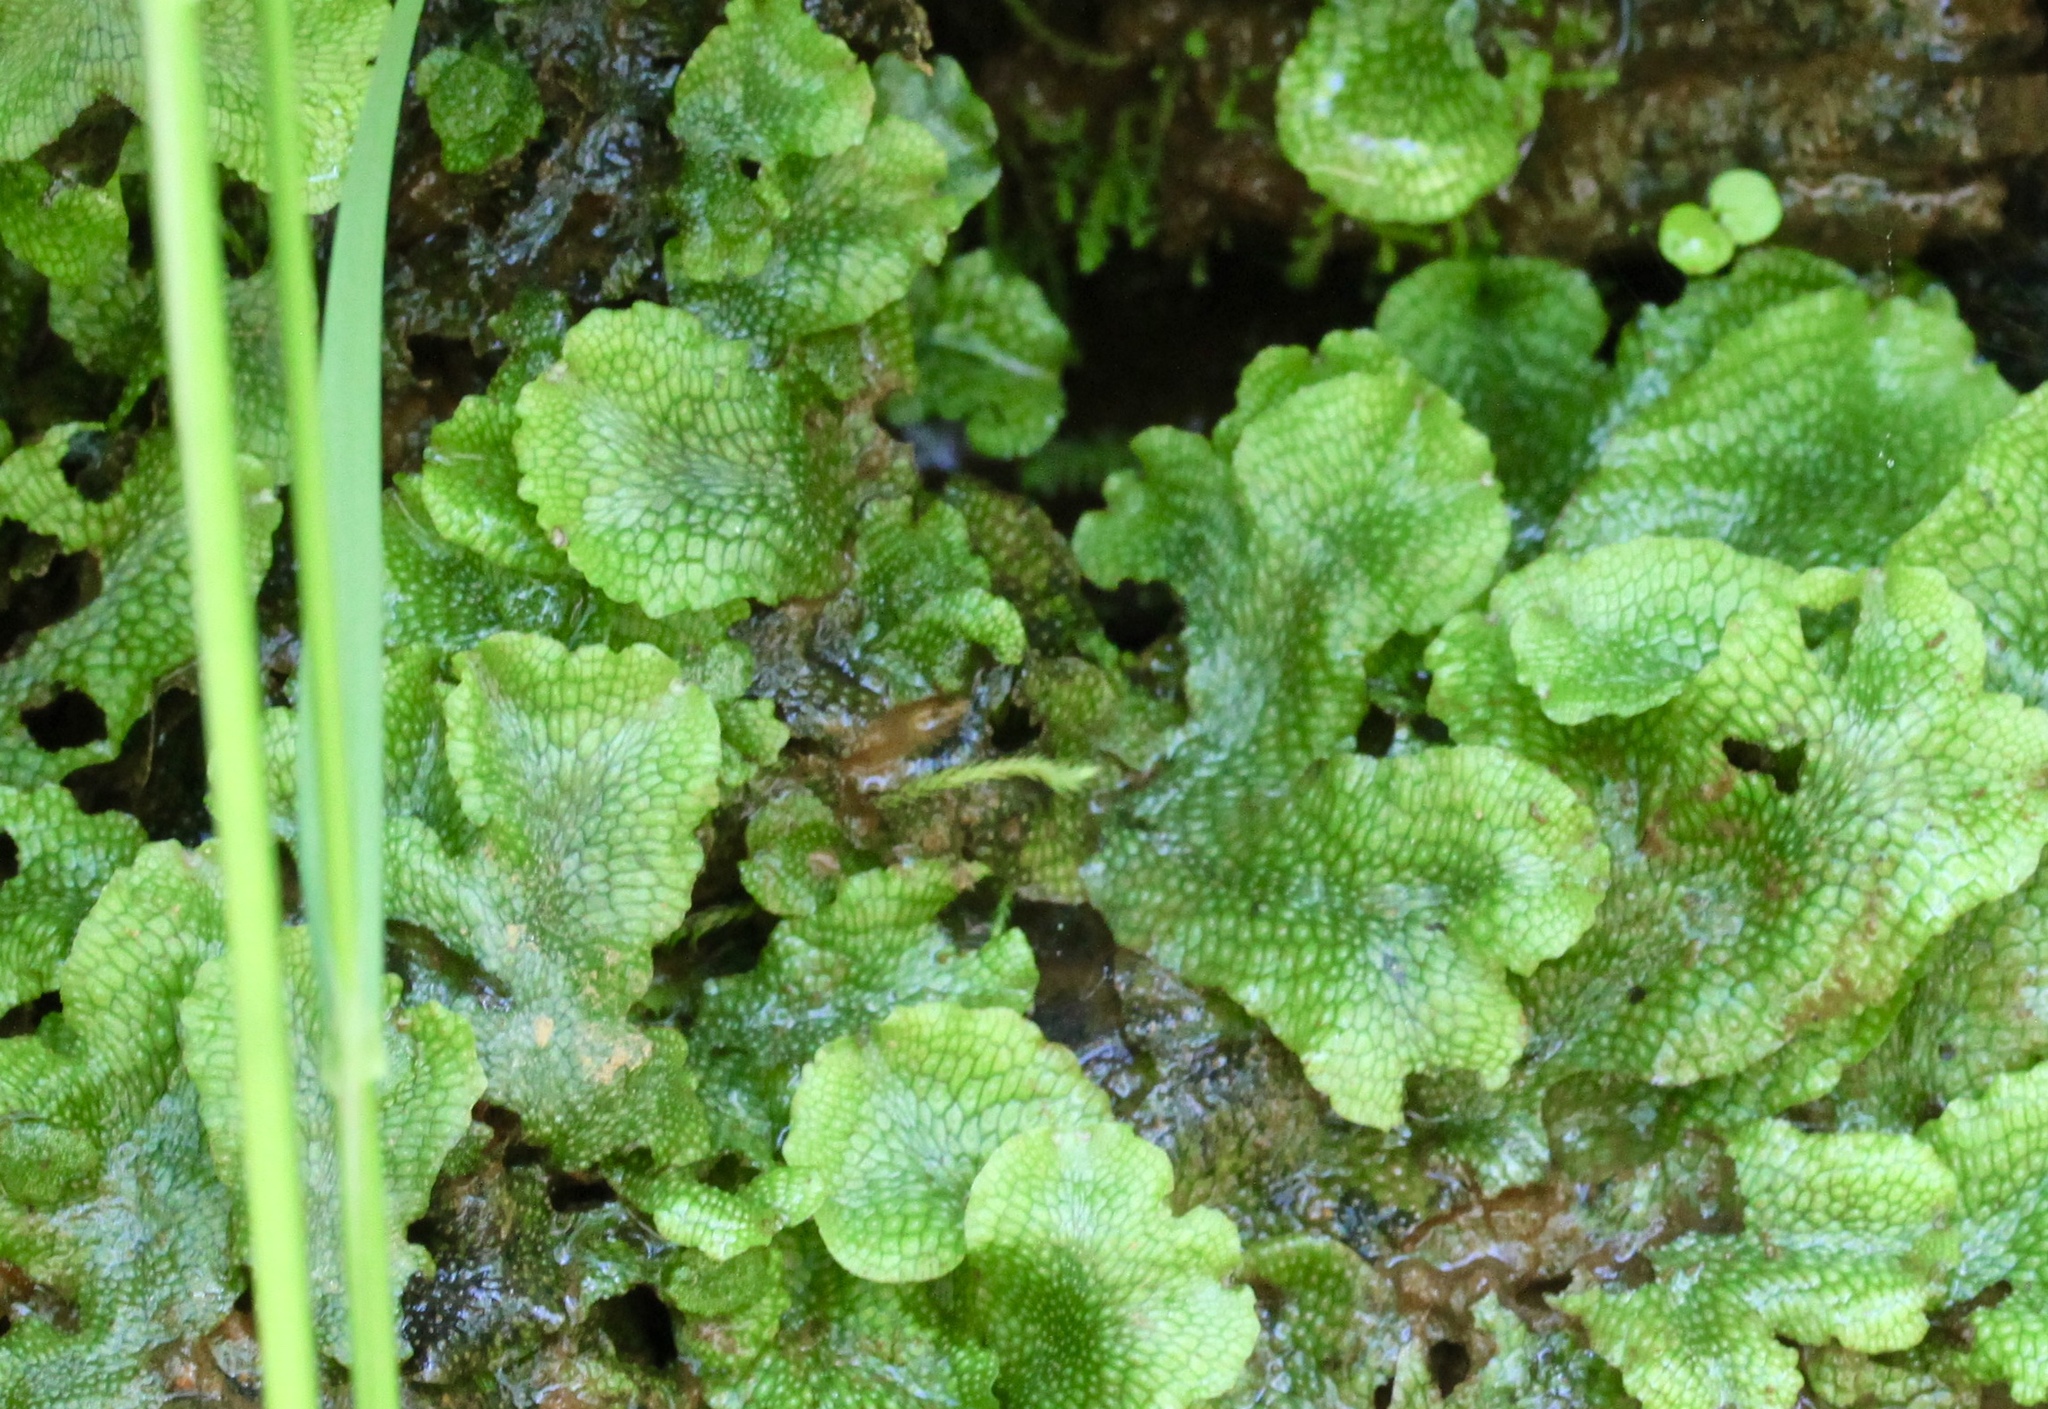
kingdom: Plantae
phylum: Marchantiophyta
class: Marchantiopsida
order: Marchantiales
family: Conocephalaceae
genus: Conocephalum
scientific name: Conocephalum salebrosum
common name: Cat-tongue liverwort
